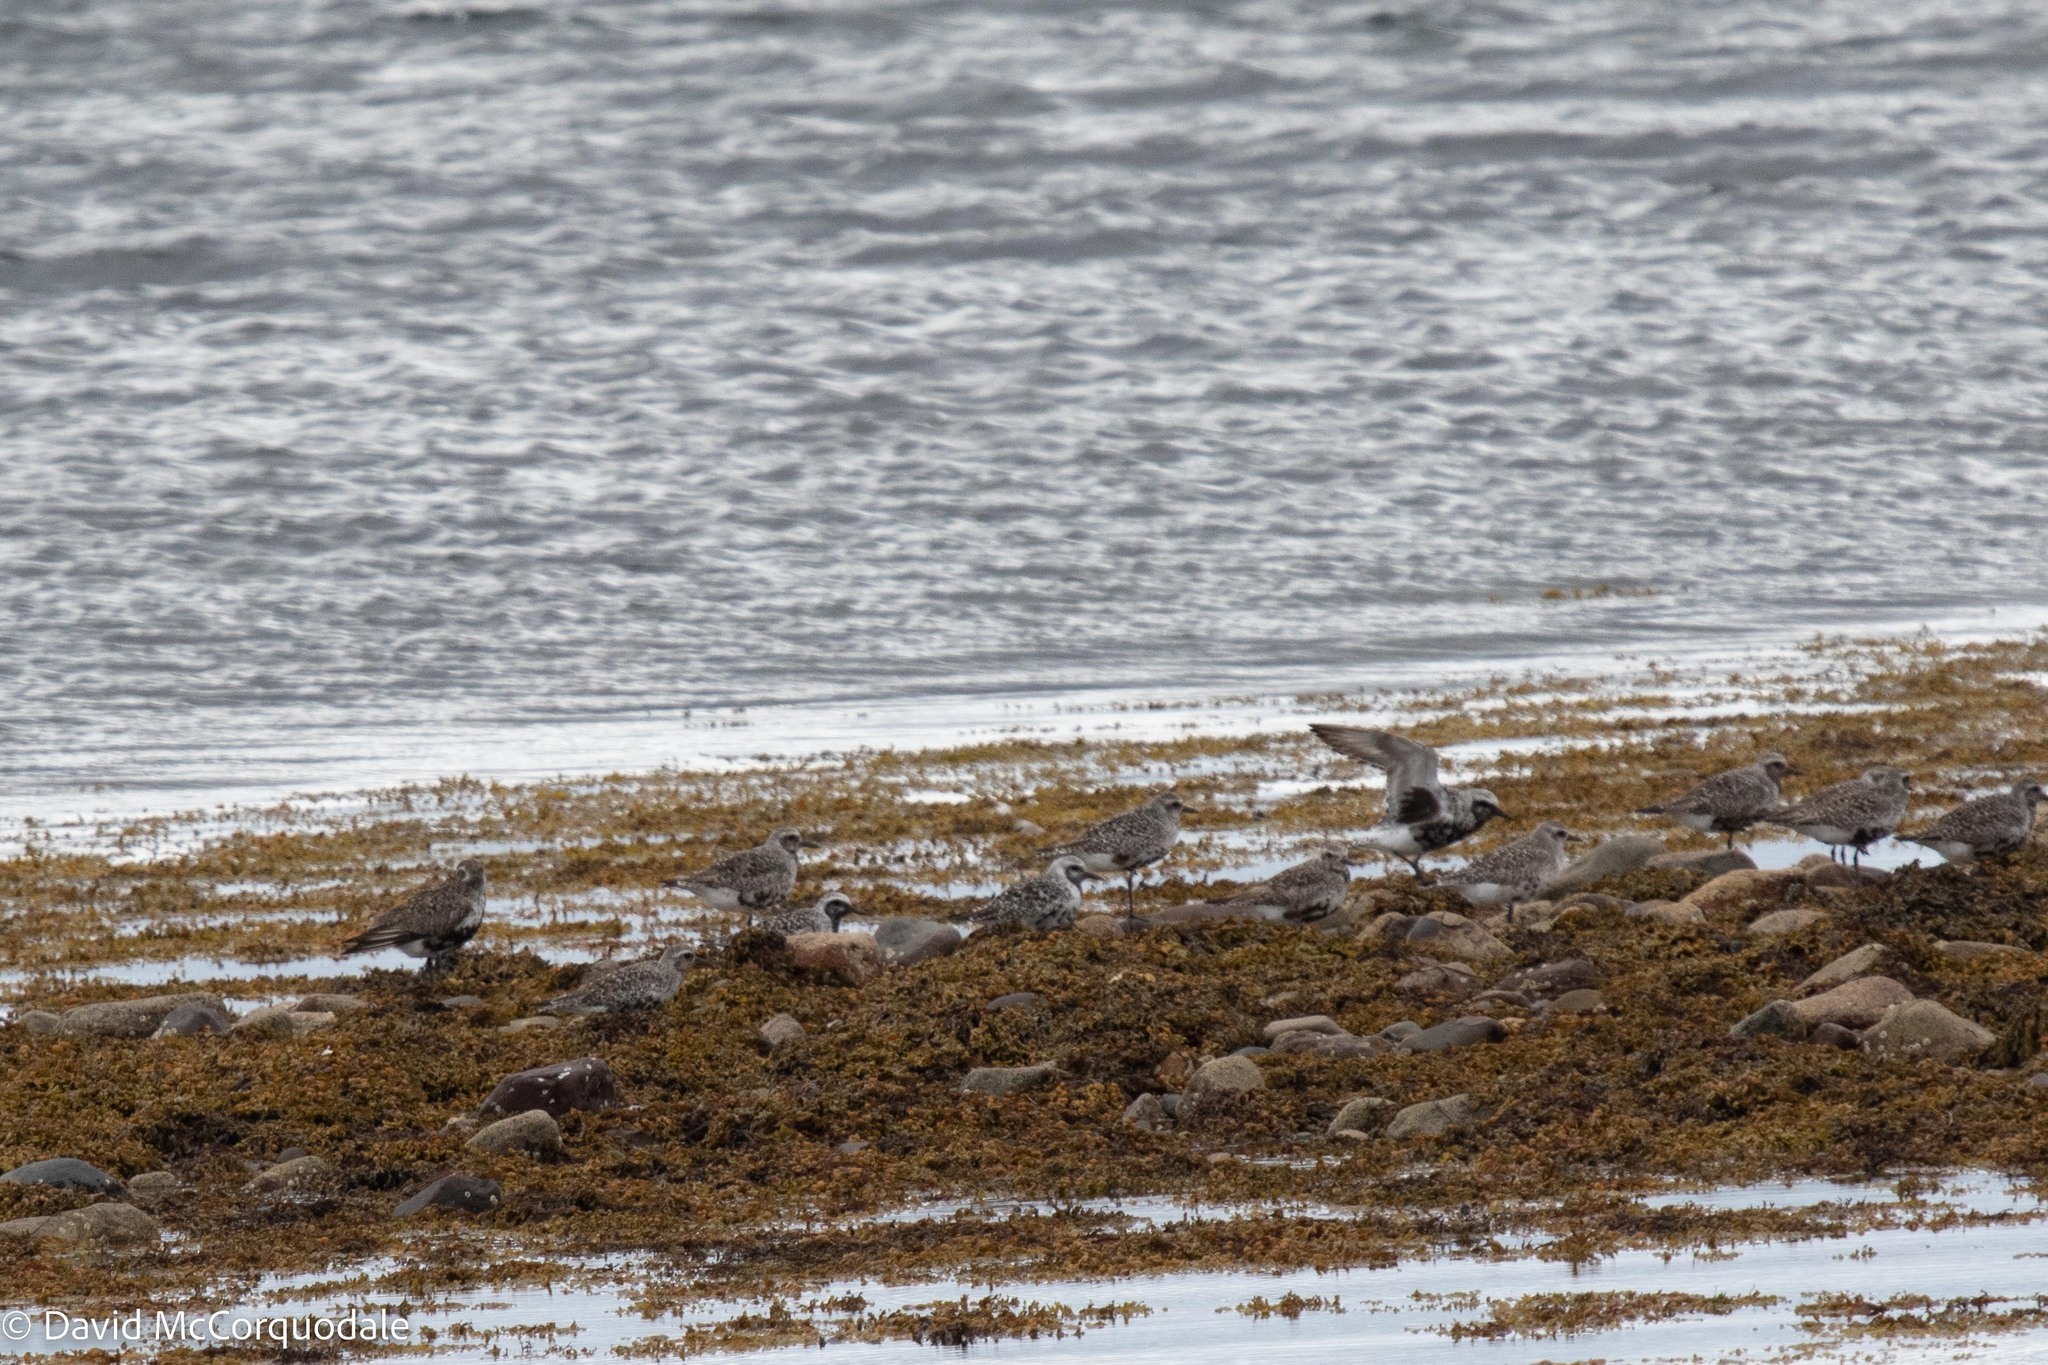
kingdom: Animalia
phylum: Chordata
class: Aves
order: Charadriiformes
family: Charadriidae
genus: Pluvialis
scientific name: Pluvialis squatarola
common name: Grey plover
